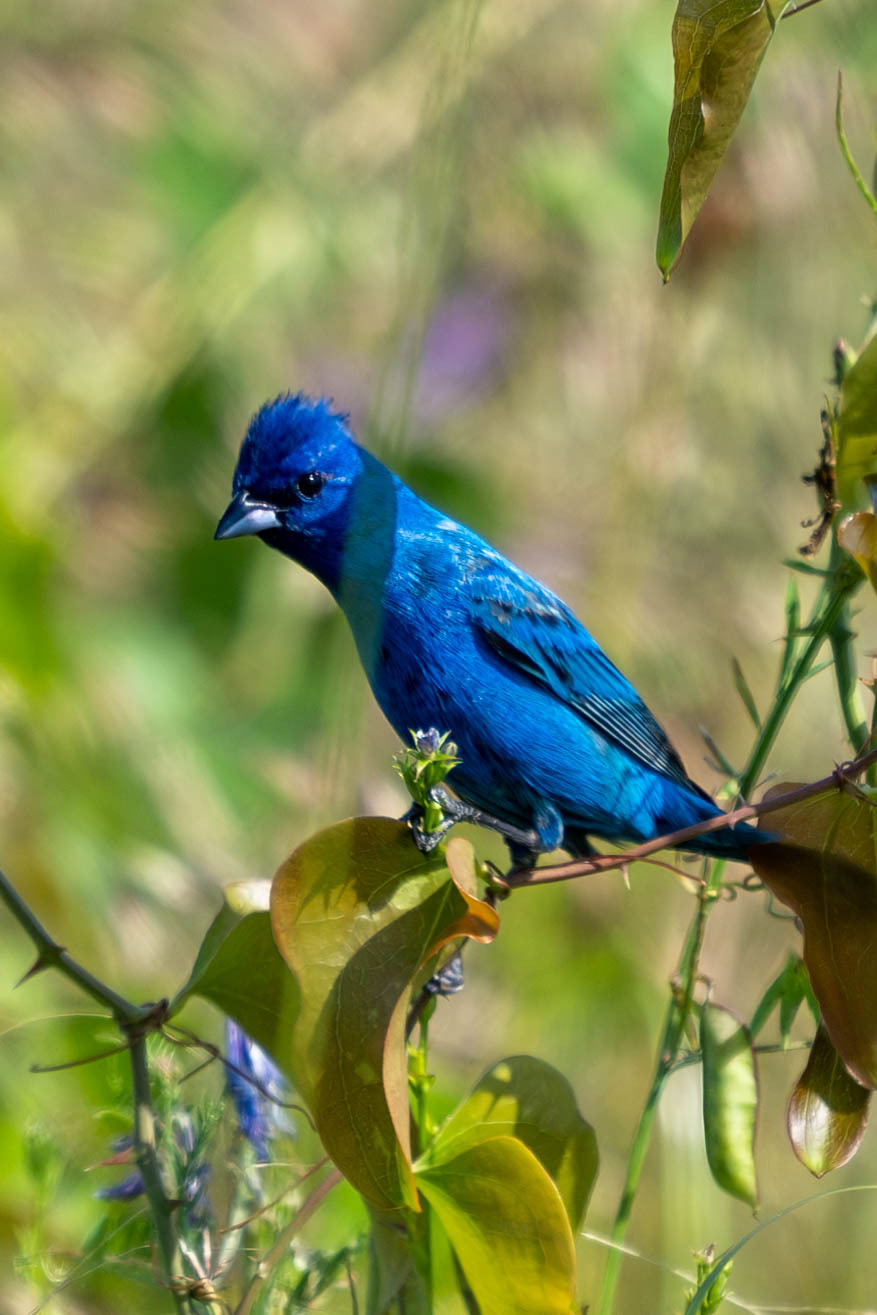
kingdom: Animalia
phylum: Chordata
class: Aves
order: Passeriformes
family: Cardinalidae
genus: Passerina
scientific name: Passerina cyanea
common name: Indigo bunting
